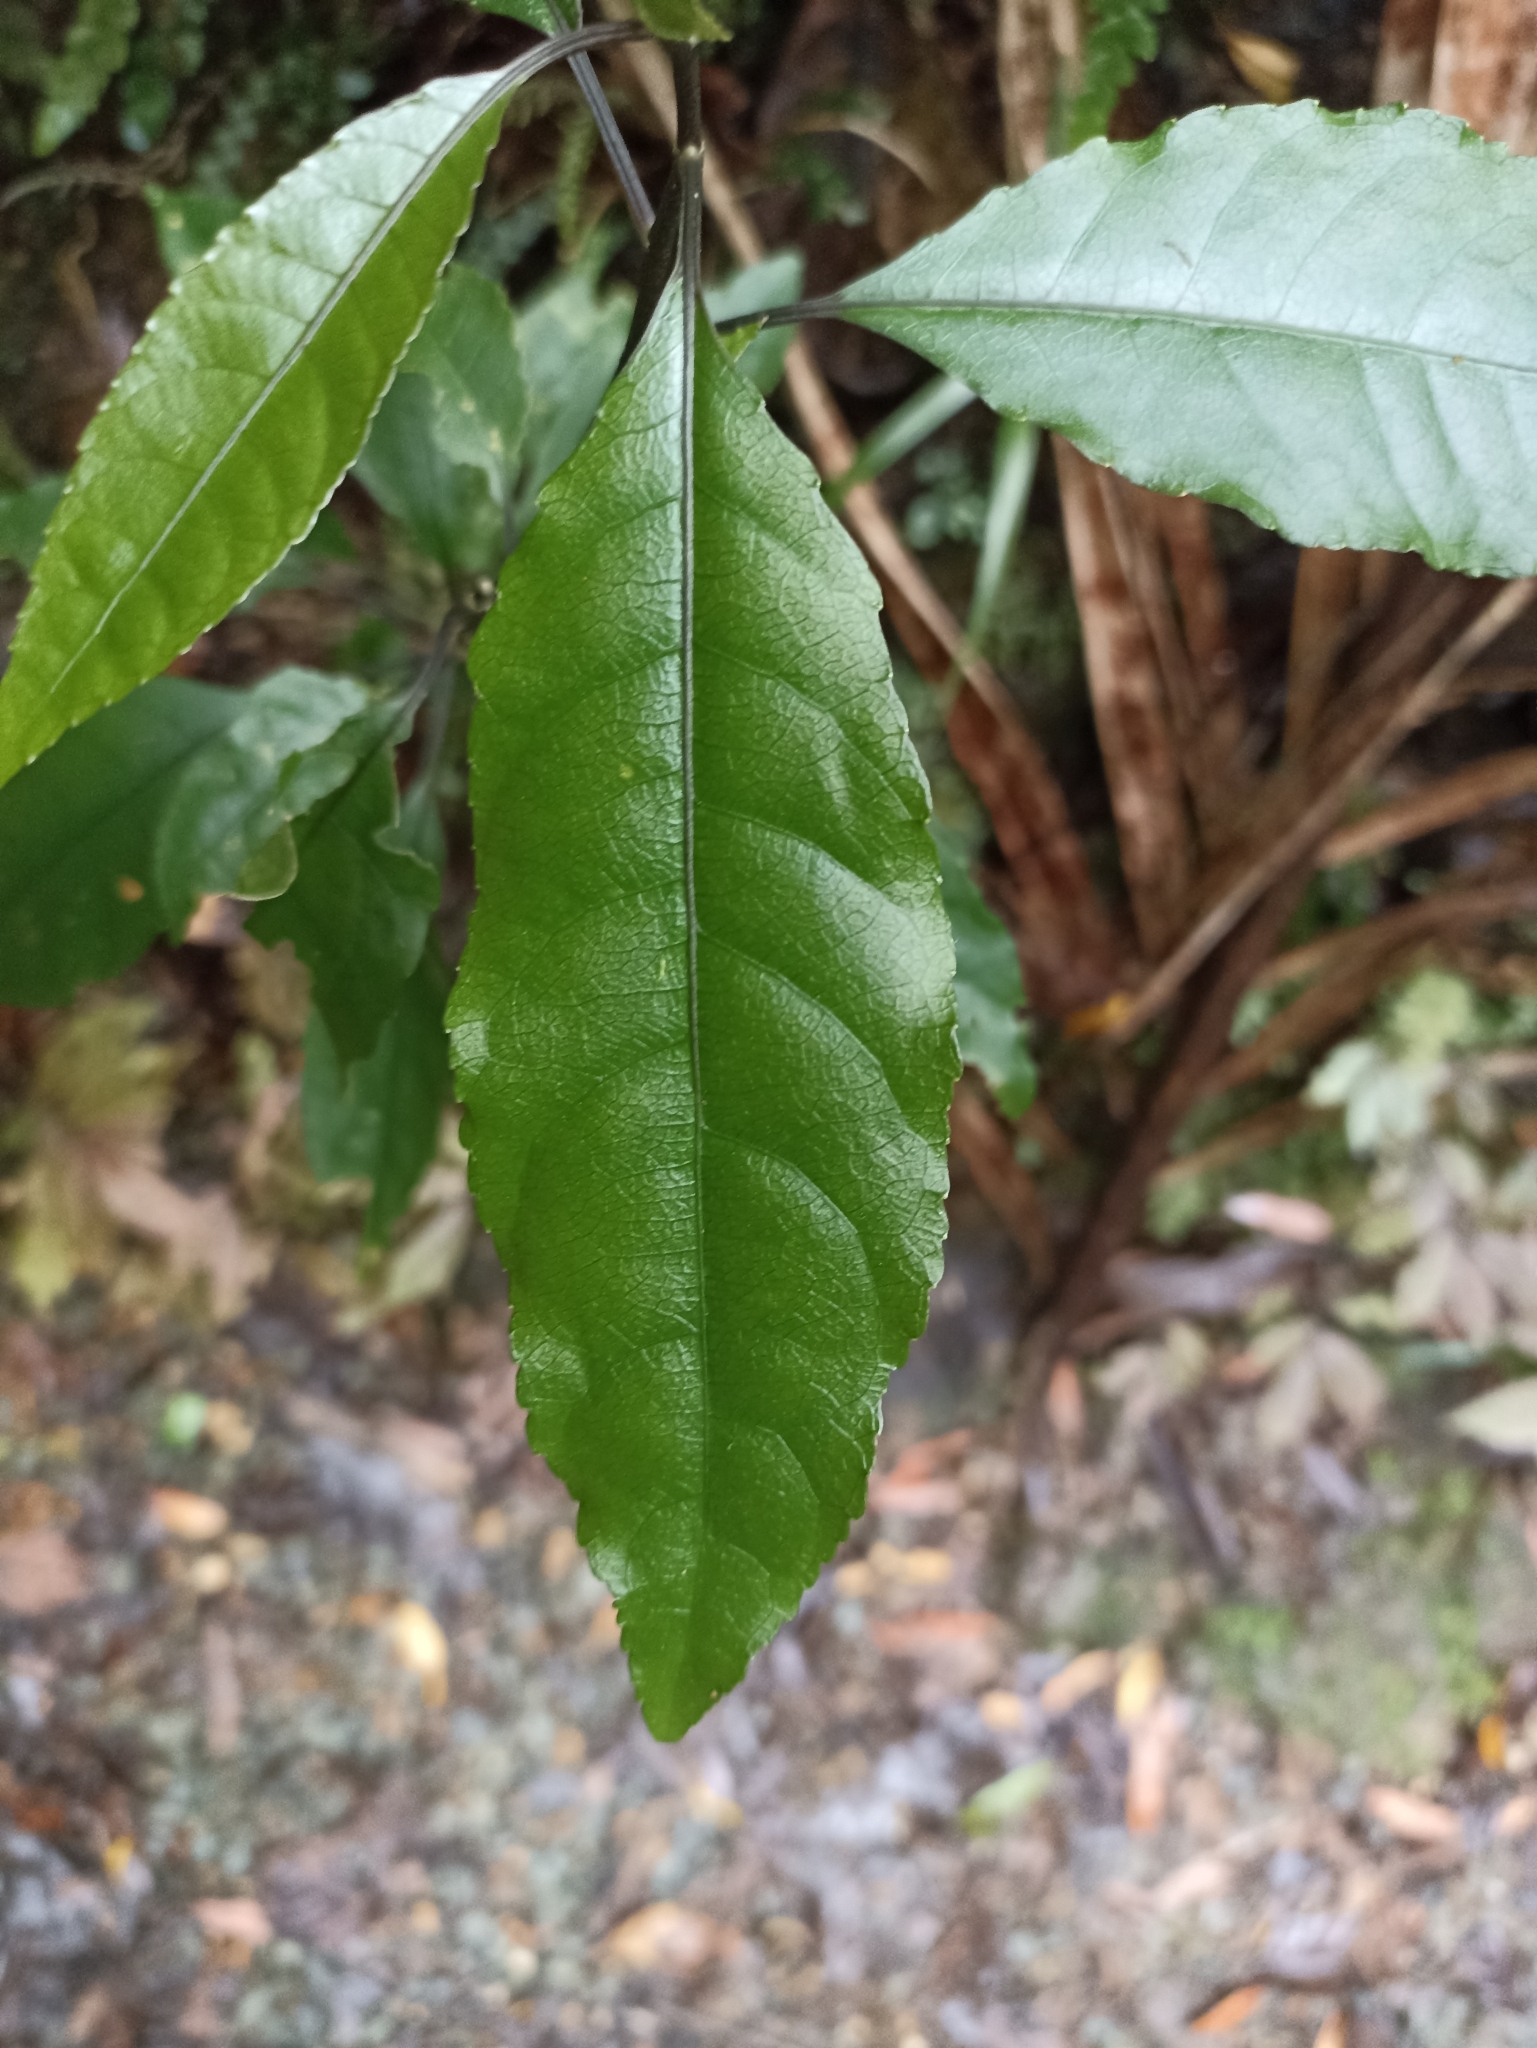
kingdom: Plantae
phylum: Tracheophyta
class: Magnoliopsida
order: Malpighiales
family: Violaceae
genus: Melicytus
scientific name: Melicytus ramiflorus
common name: Mahoe
